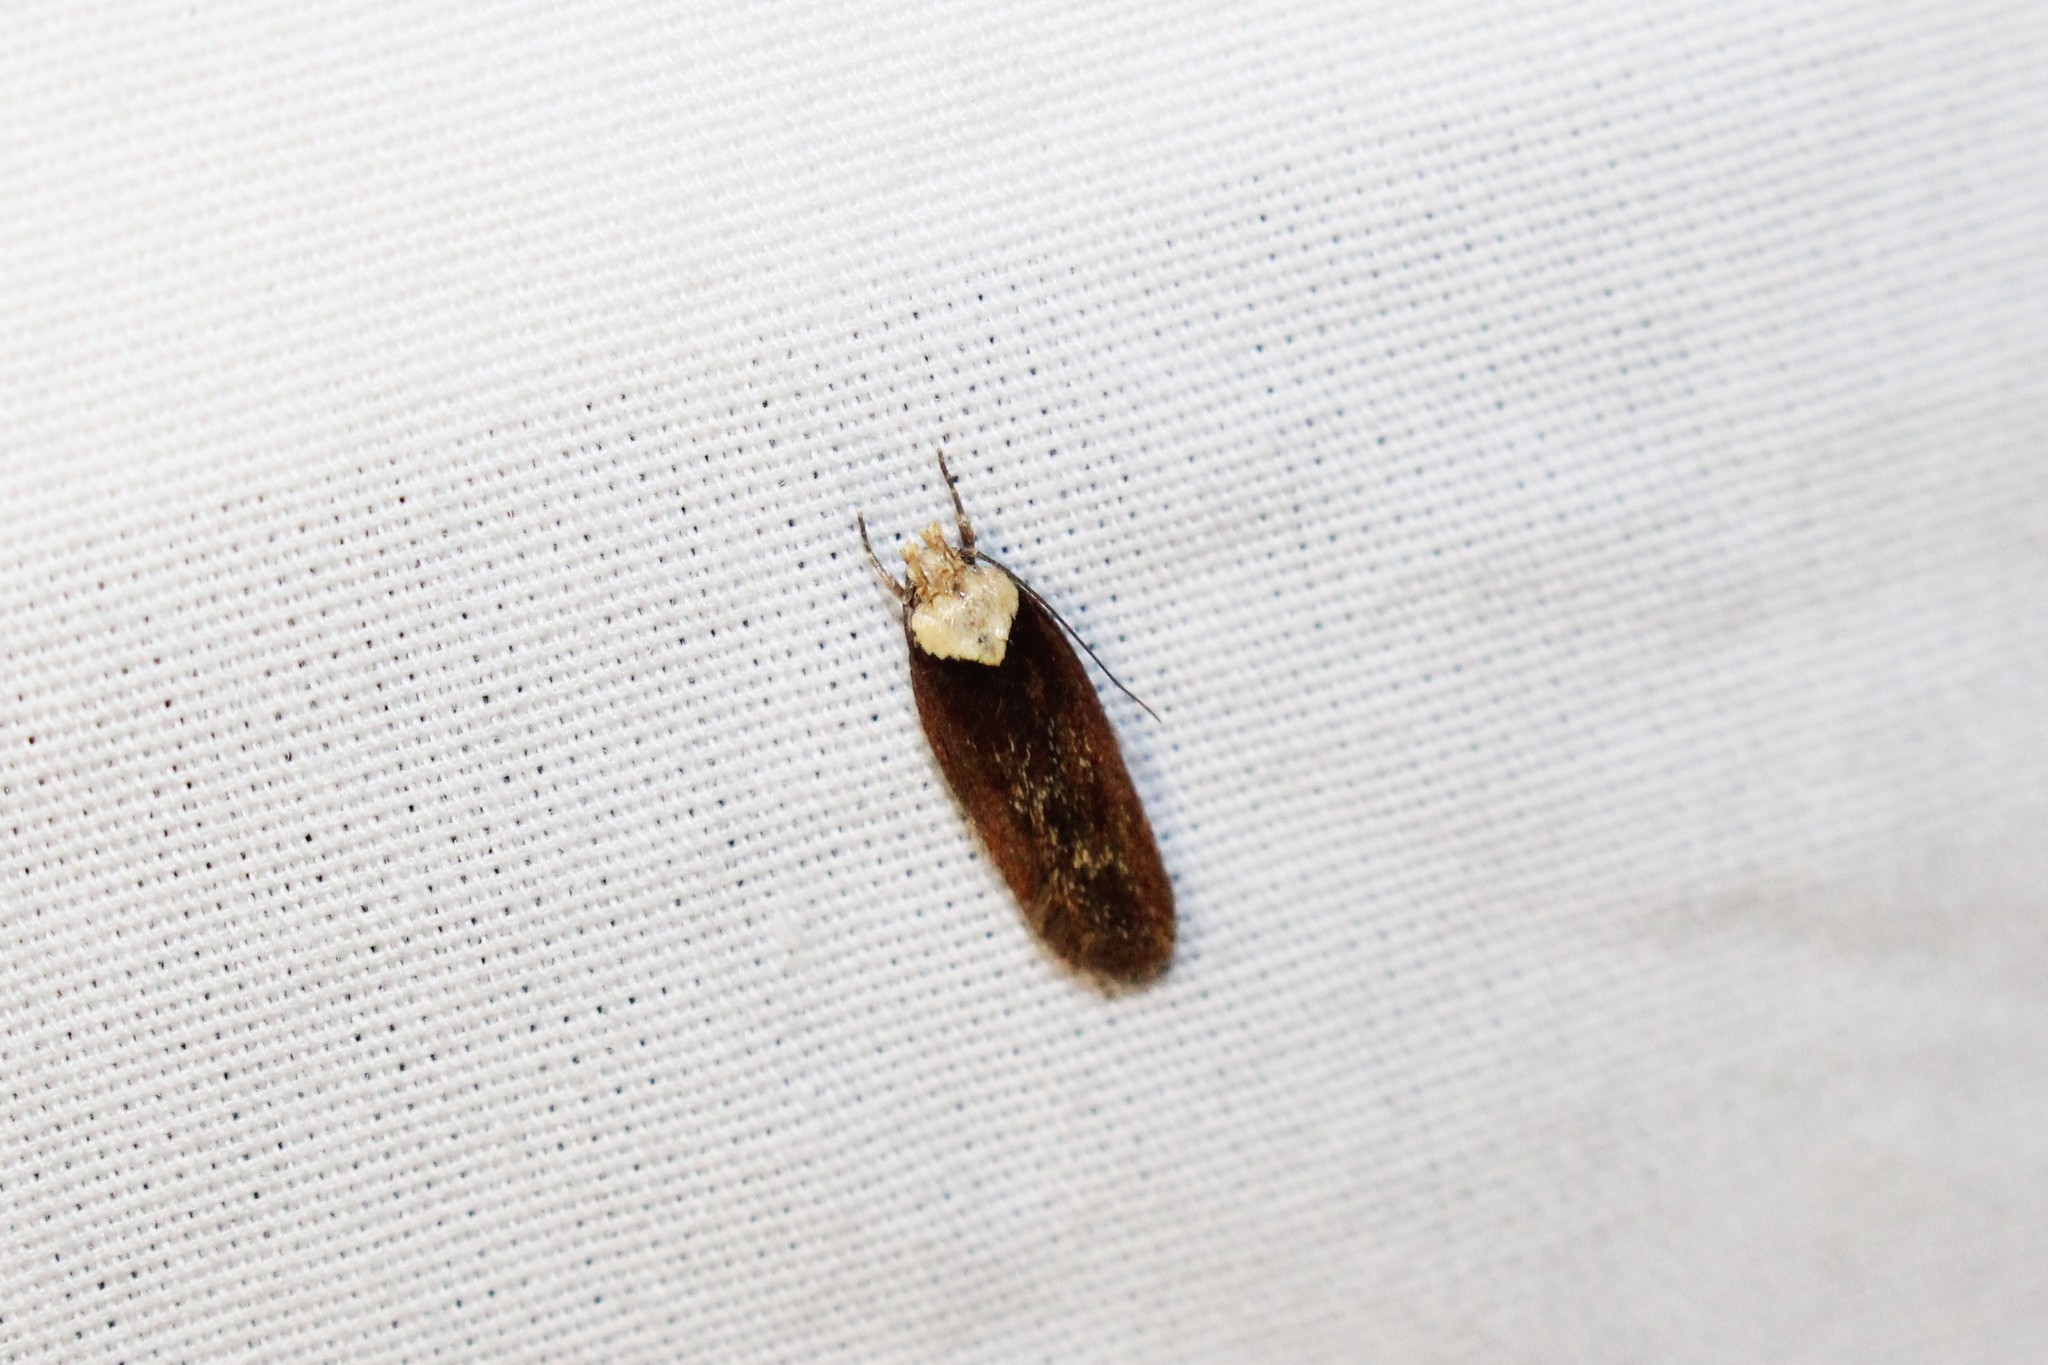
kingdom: Animalia
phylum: Arthropoda
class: Insecta
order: Lepidoptera
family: Depressariidae
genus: Depressaria
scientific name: Depressaria depressana
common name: Lost flat-body
